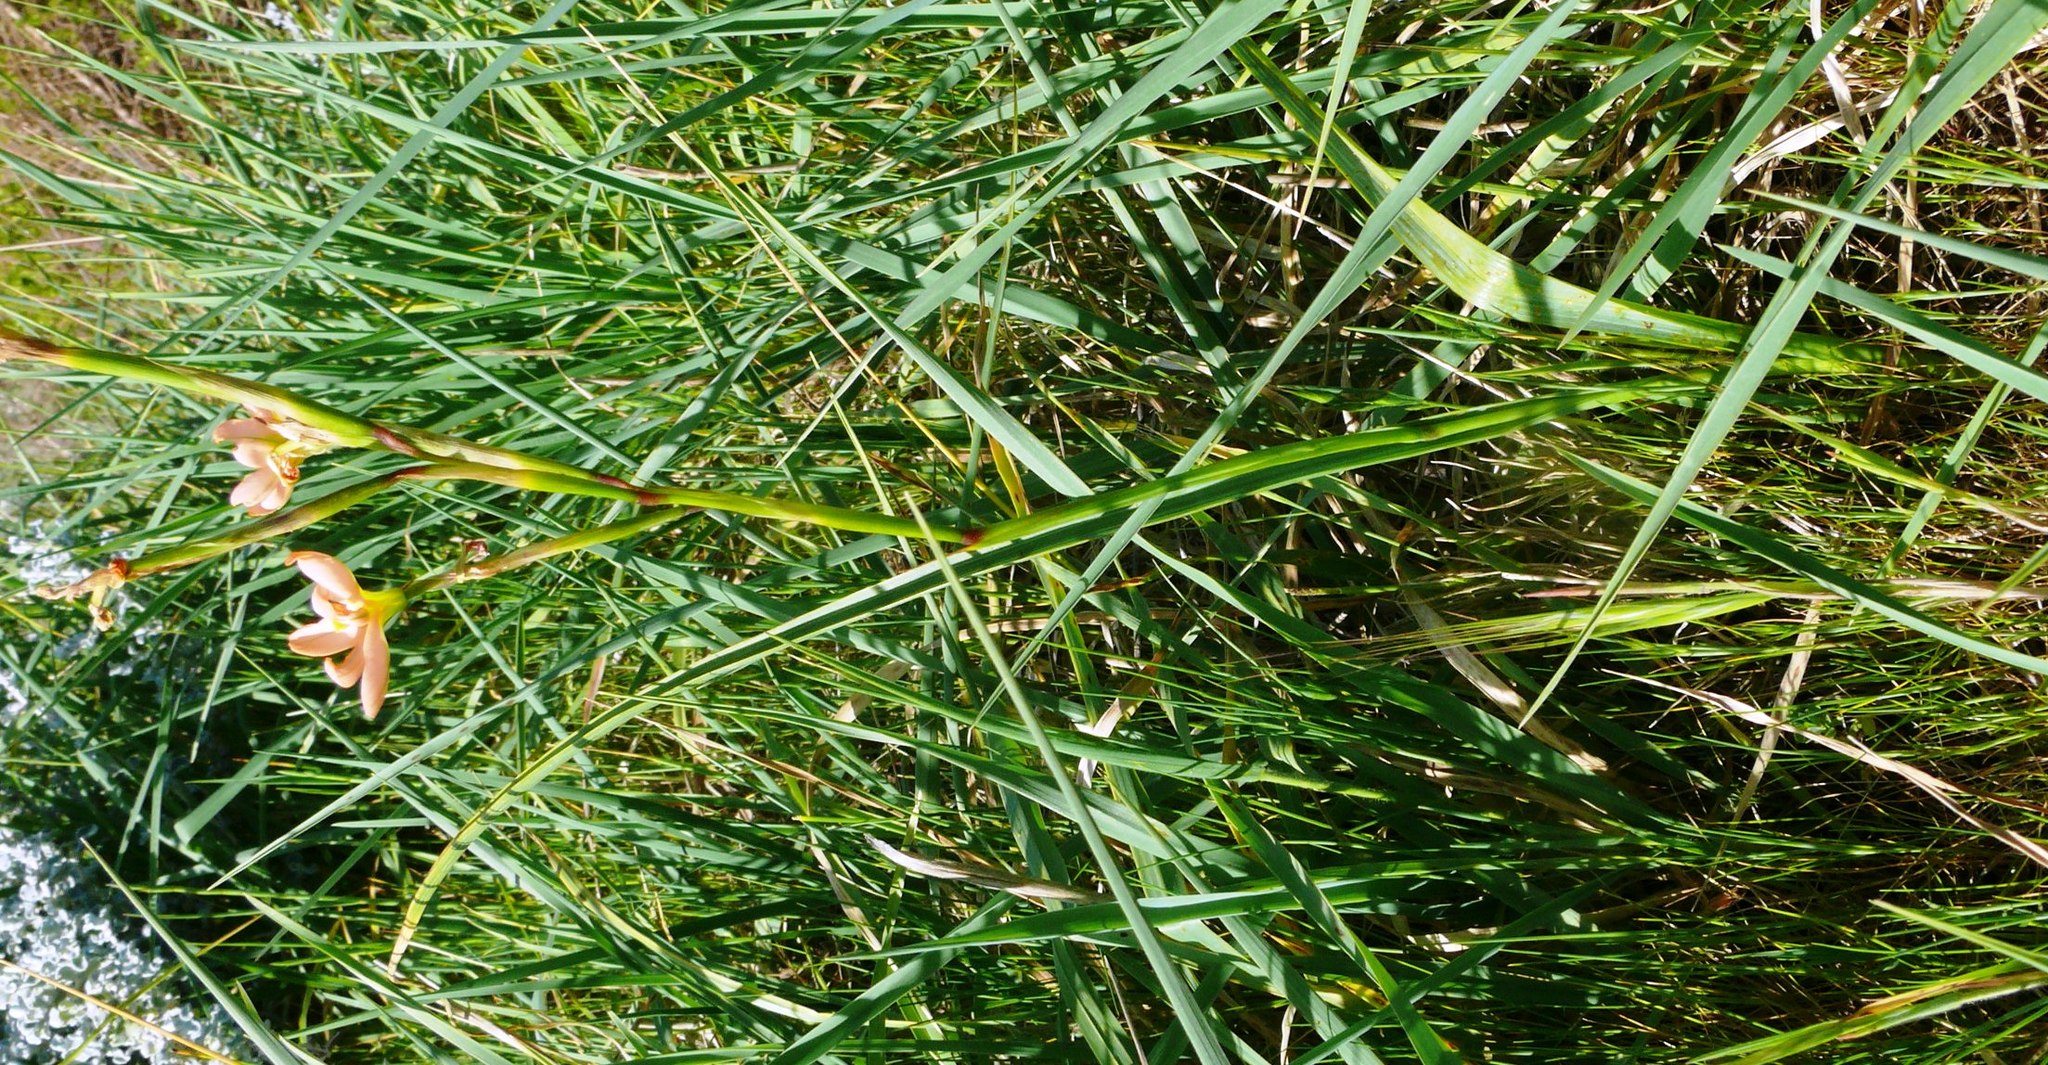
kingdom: Plantae
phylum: Tracheophyta
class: Liliopsida
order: Asparagales
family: Iridaceae
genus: Moraea
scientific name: Moraea miniata
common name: Two-leaf cape-tulip
